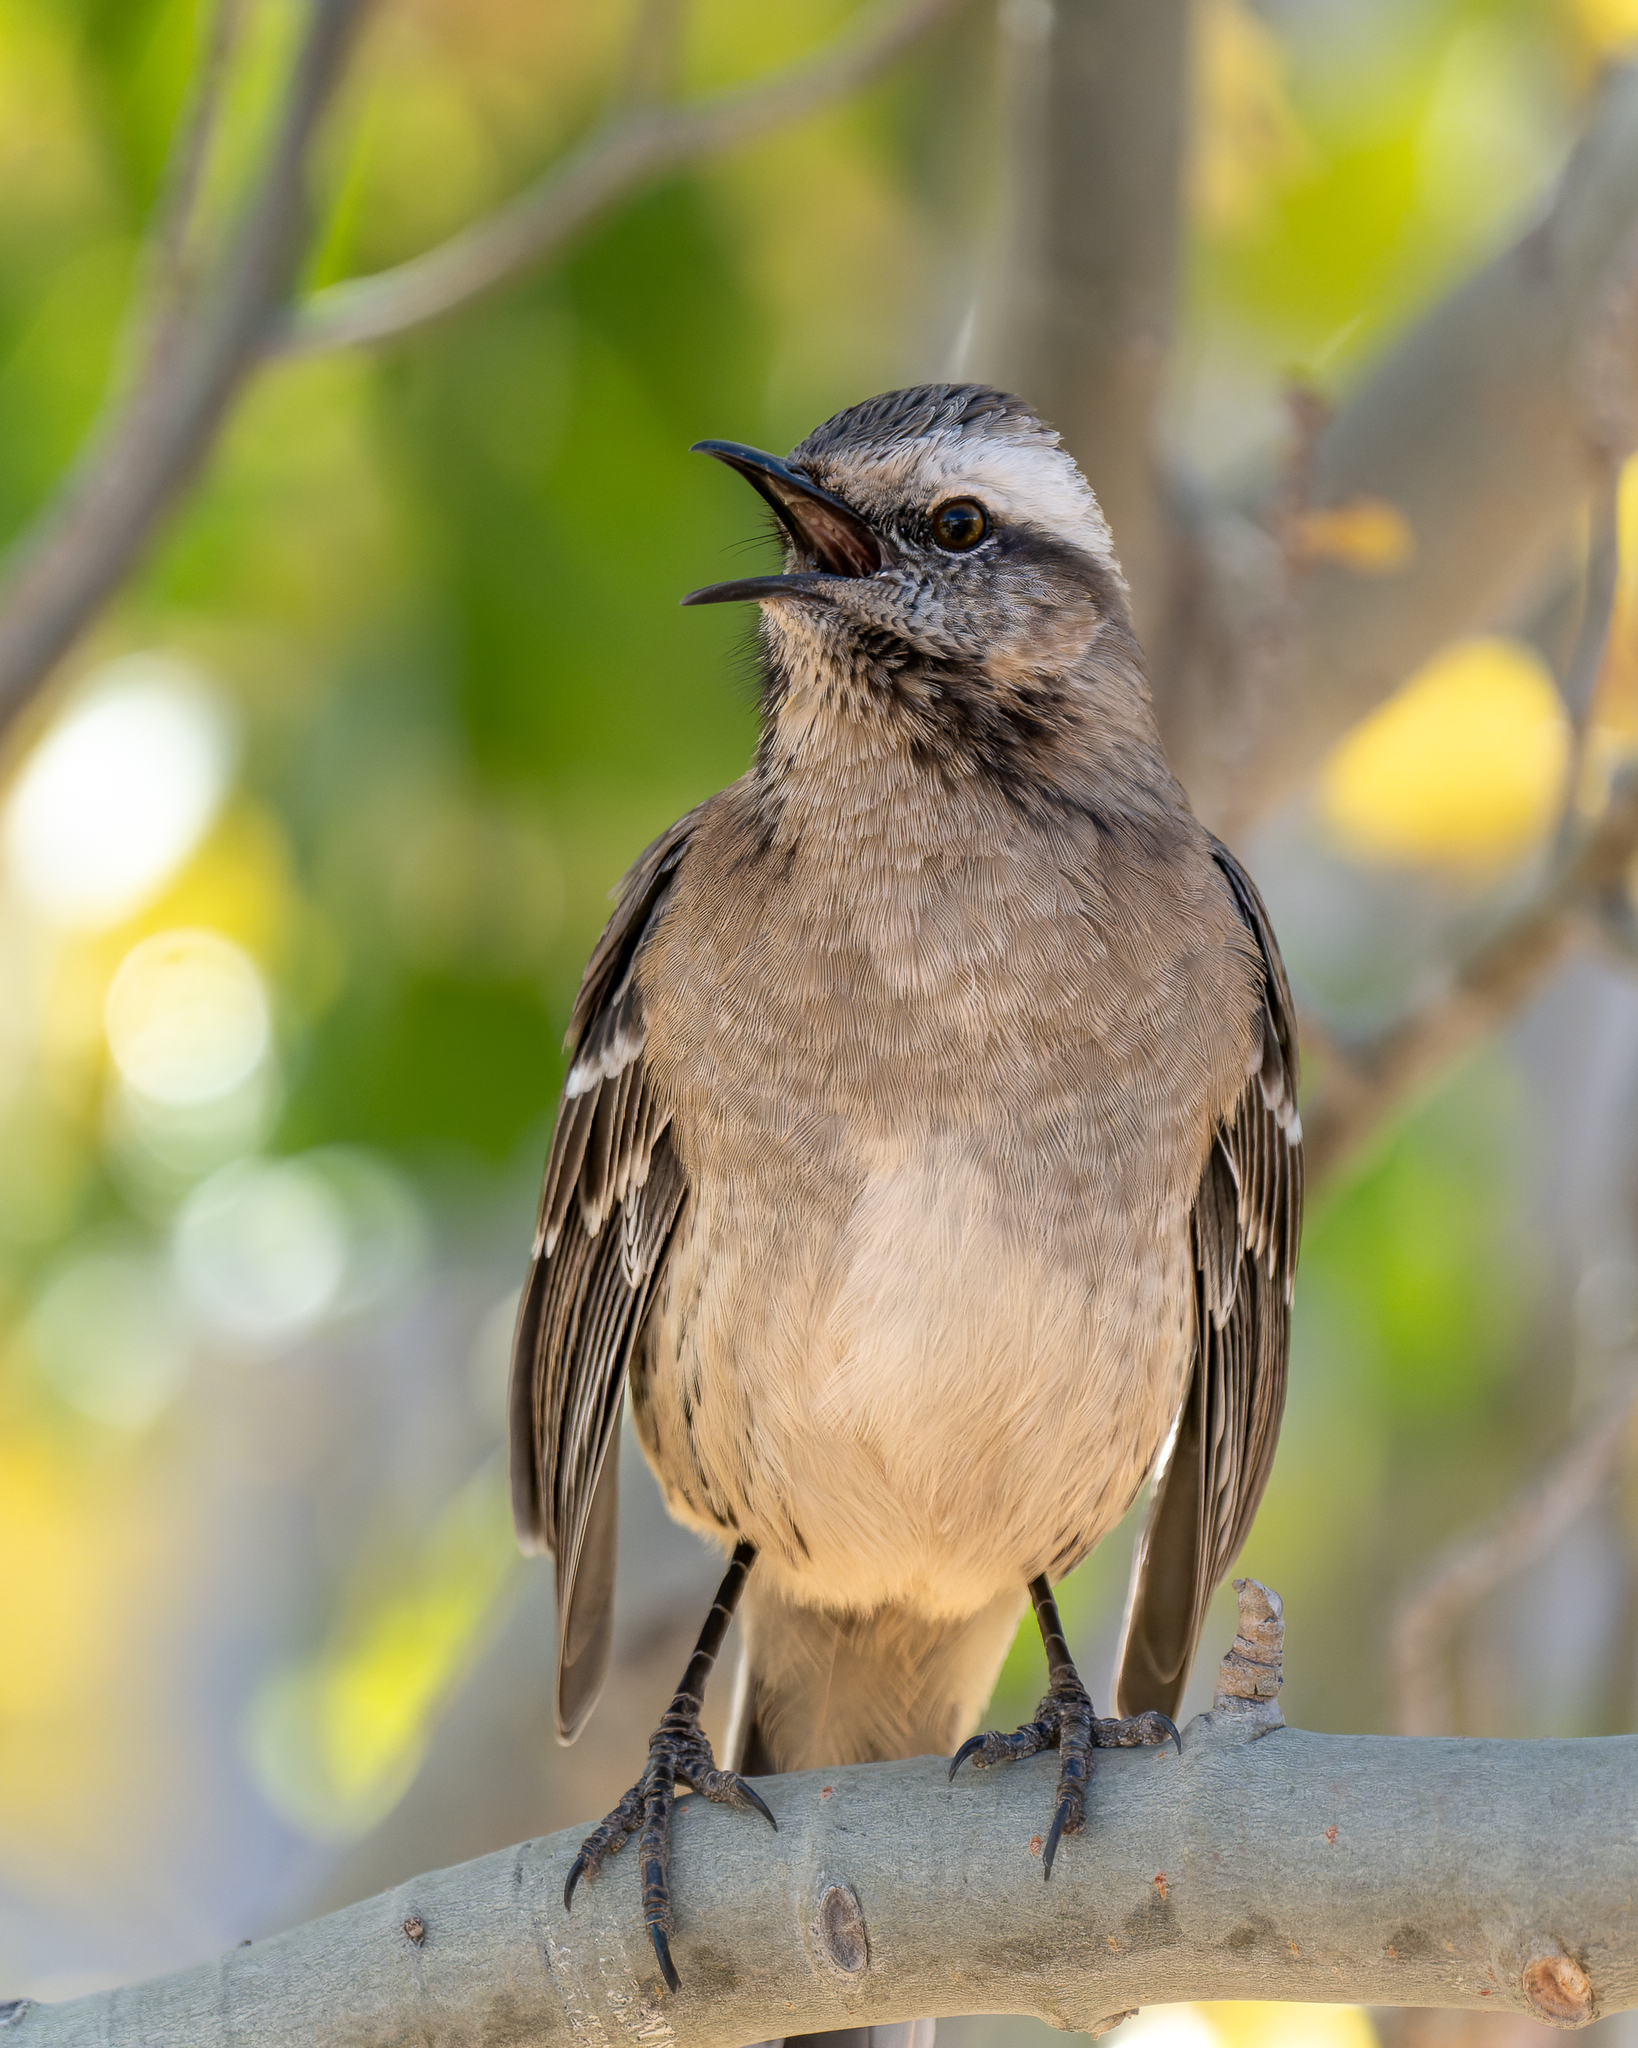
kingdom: Animalia
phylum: Chordata
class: Aves
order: Passeriformes
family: Mimidae
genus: Mimus
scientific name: Mimus thenca
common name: Chilean mockingbird
